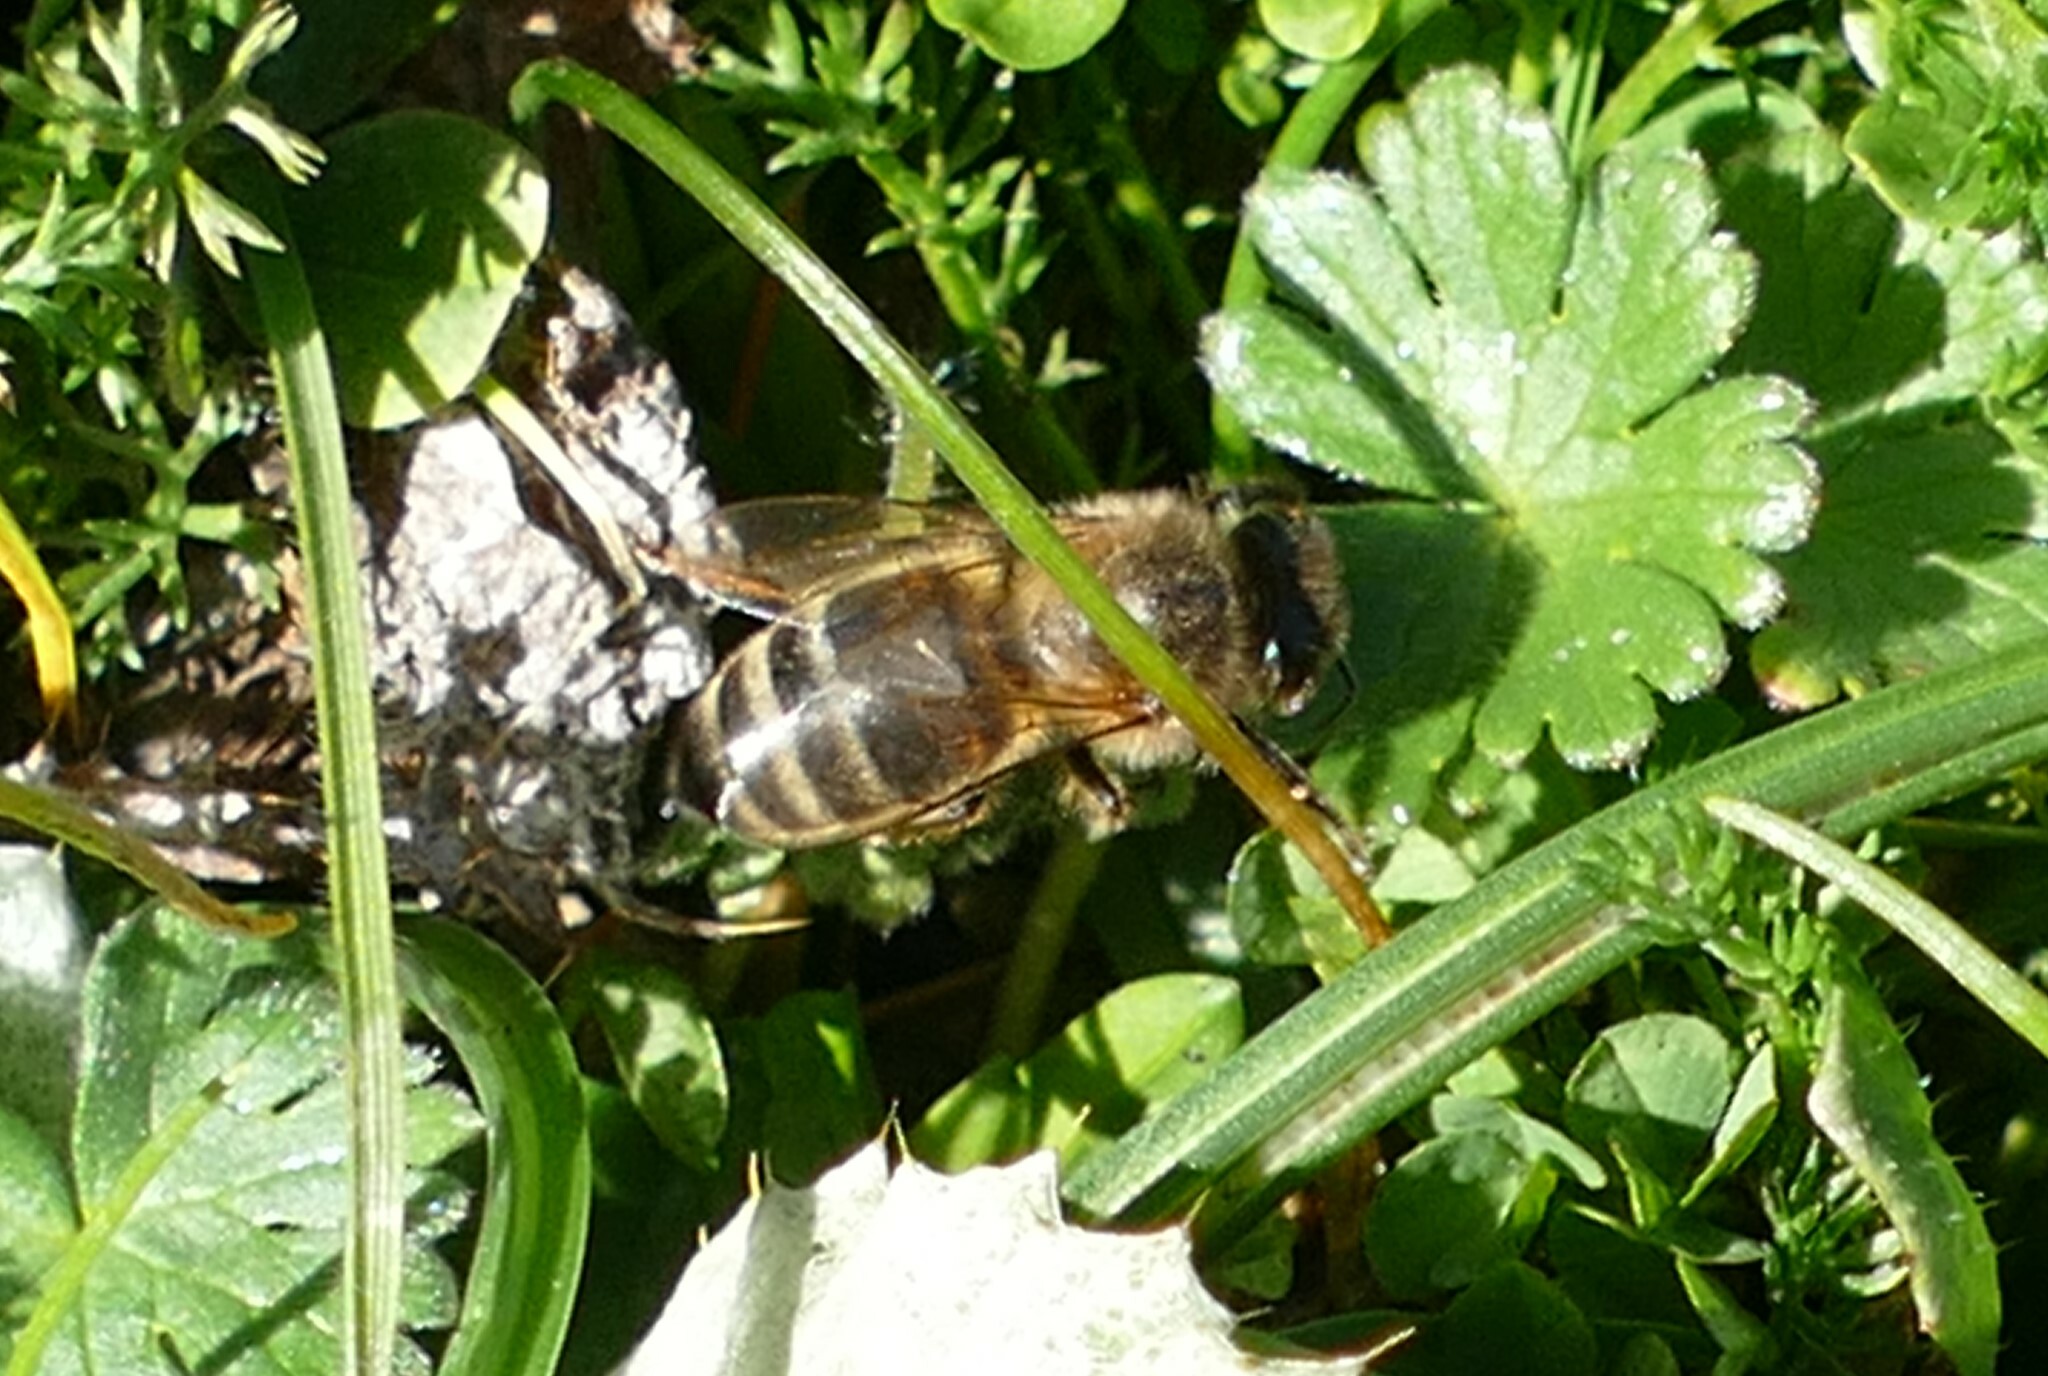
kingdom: Animalia
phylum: Arthropoda
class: Insecta
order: Hymenoptera
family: Apidae
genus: Apis
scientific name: Apis mellifera
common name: Honey bee
